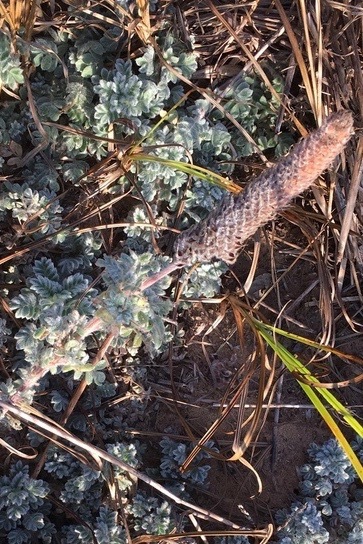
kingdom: Plantae
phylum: Tracheophyta
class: Magnoliopsida
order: Fabales
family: Fabaceae
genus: Dalea
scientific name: Dalea obovata
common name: Pussyfoot
